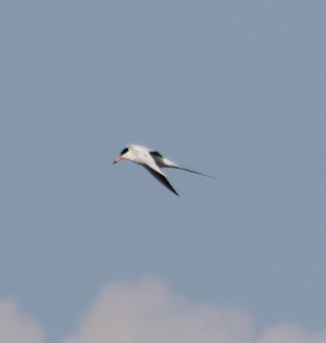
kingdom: Animalia
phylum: Chordata
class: Aves
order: Charadriiformes
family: Laridae
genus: Sterna
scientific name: Sterna forsteri
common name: Forster's tern
